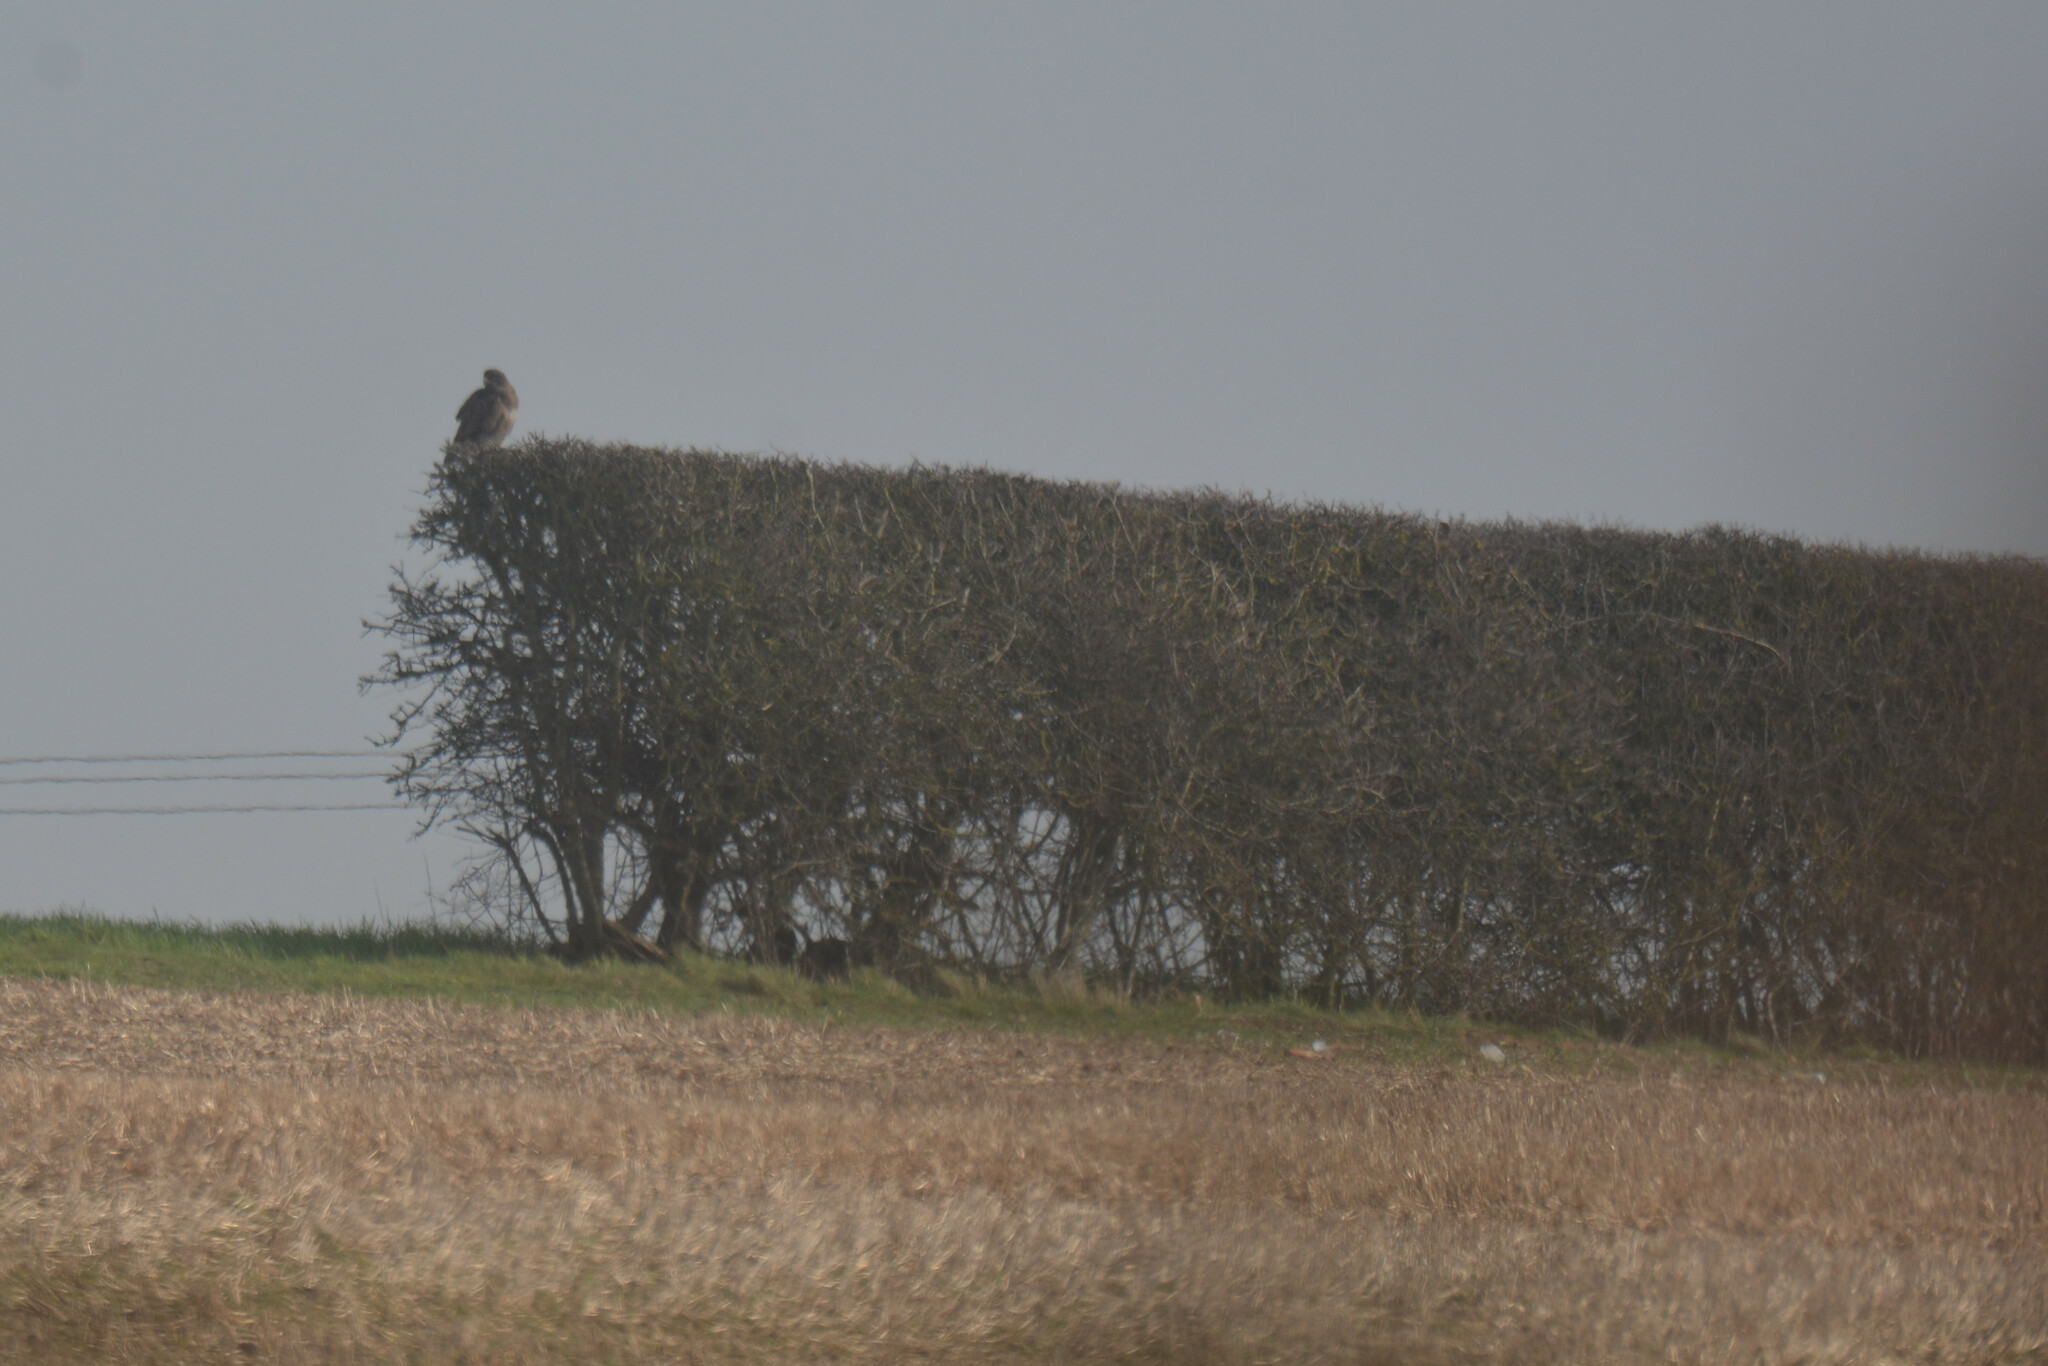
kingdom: Animalia
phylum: Chordata
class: Aves
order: Accipitriformes
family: Accipitridae
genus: Buteo
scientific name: Buteo buteo
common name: Common buzzard
